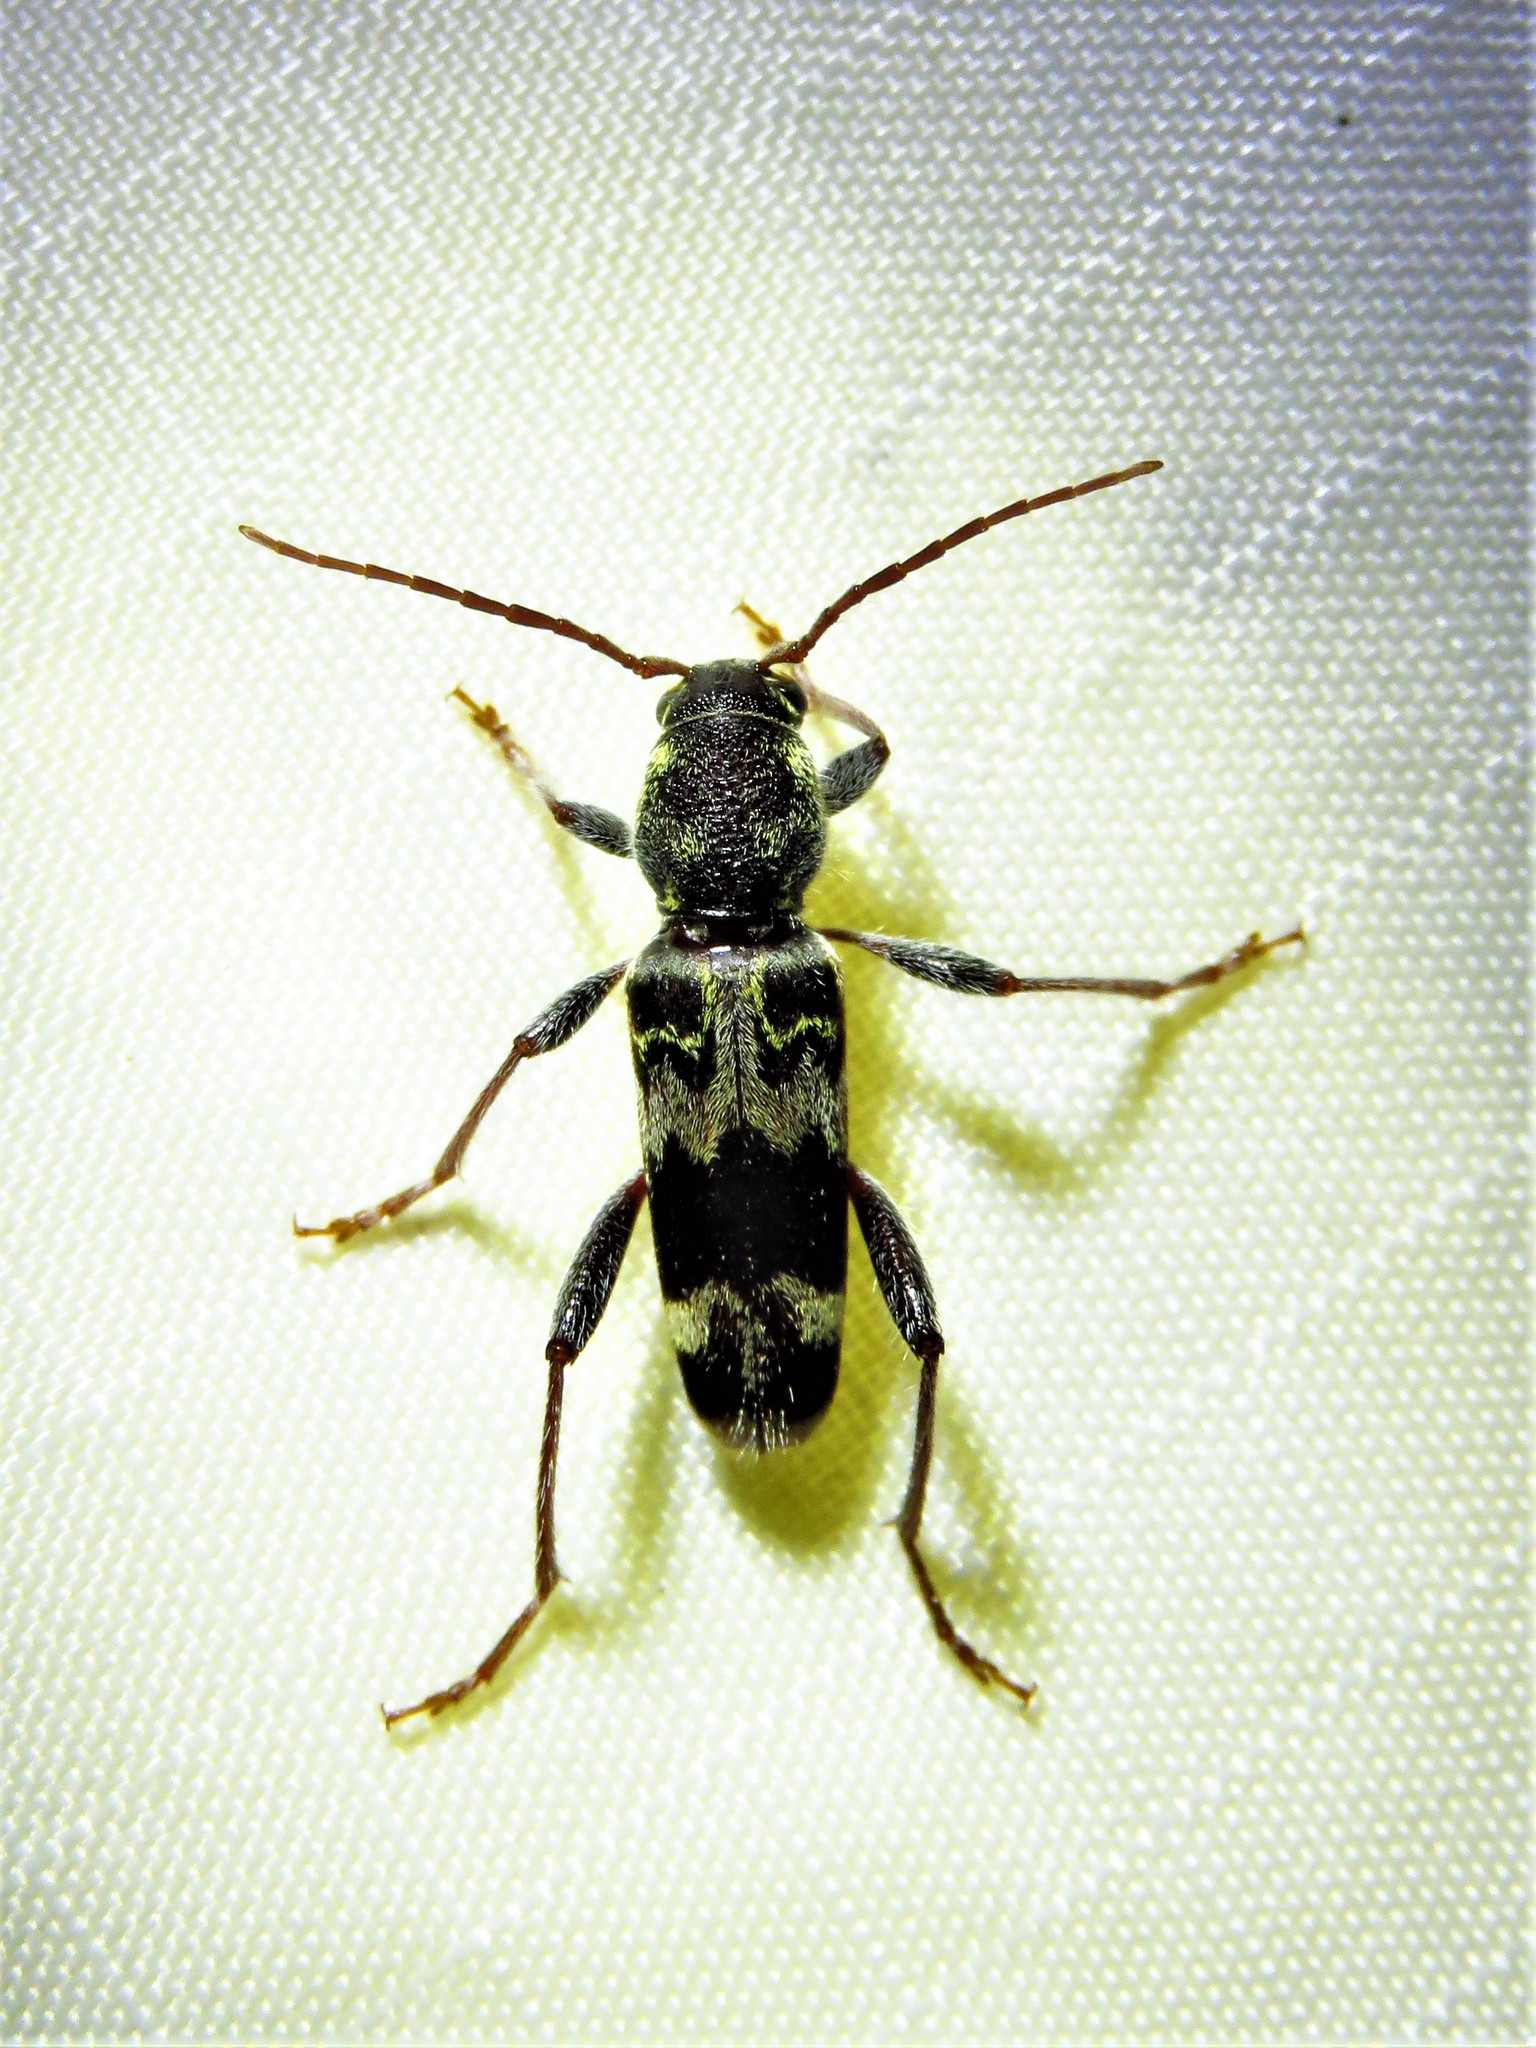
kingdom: Animalia
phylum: Arthropoda
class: Insecta
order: Coleoptera
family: Cerambycidae
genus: Xylotrechus
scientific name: Xylotrechus colonus
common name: Long-horned beetle
